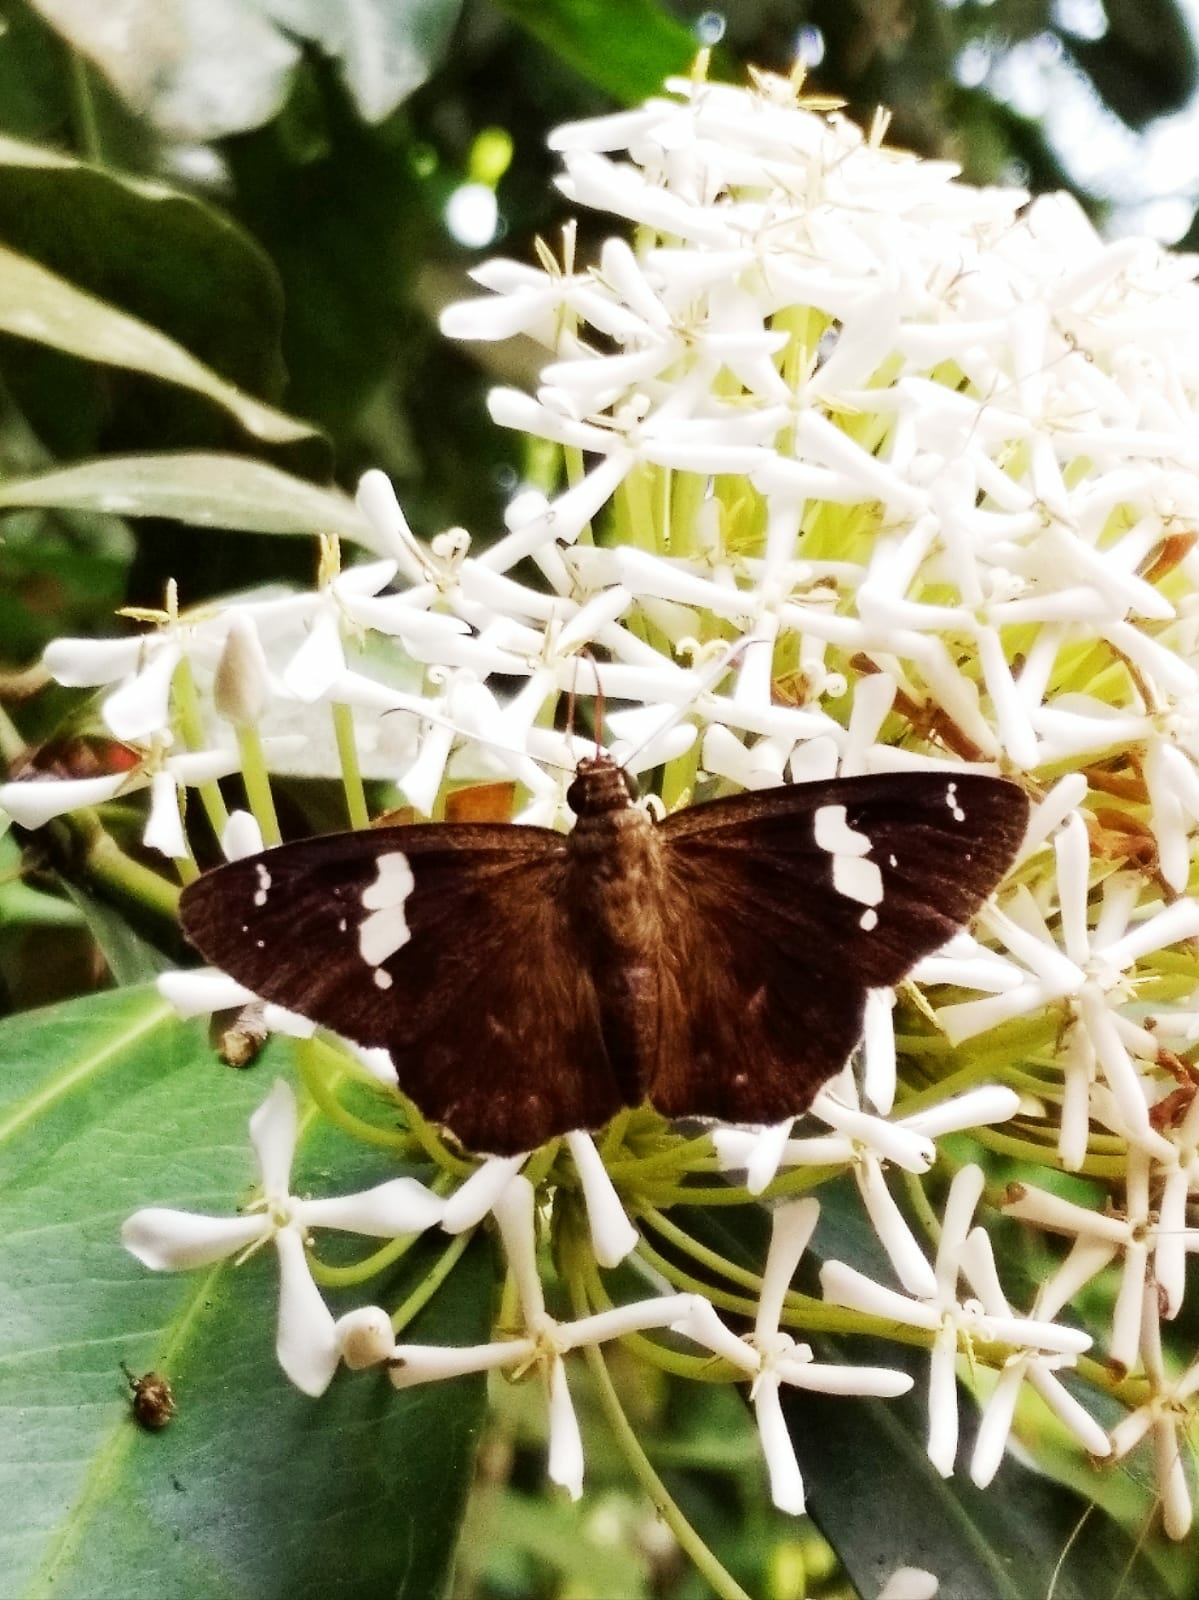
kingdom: Animalia
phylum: Arthropoda
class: Insecta
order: Lepidoptera
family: Hesperiidae
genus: Celaenorrhinus
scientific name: Celaenorrhinus putra
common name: Restricted spotted flat
